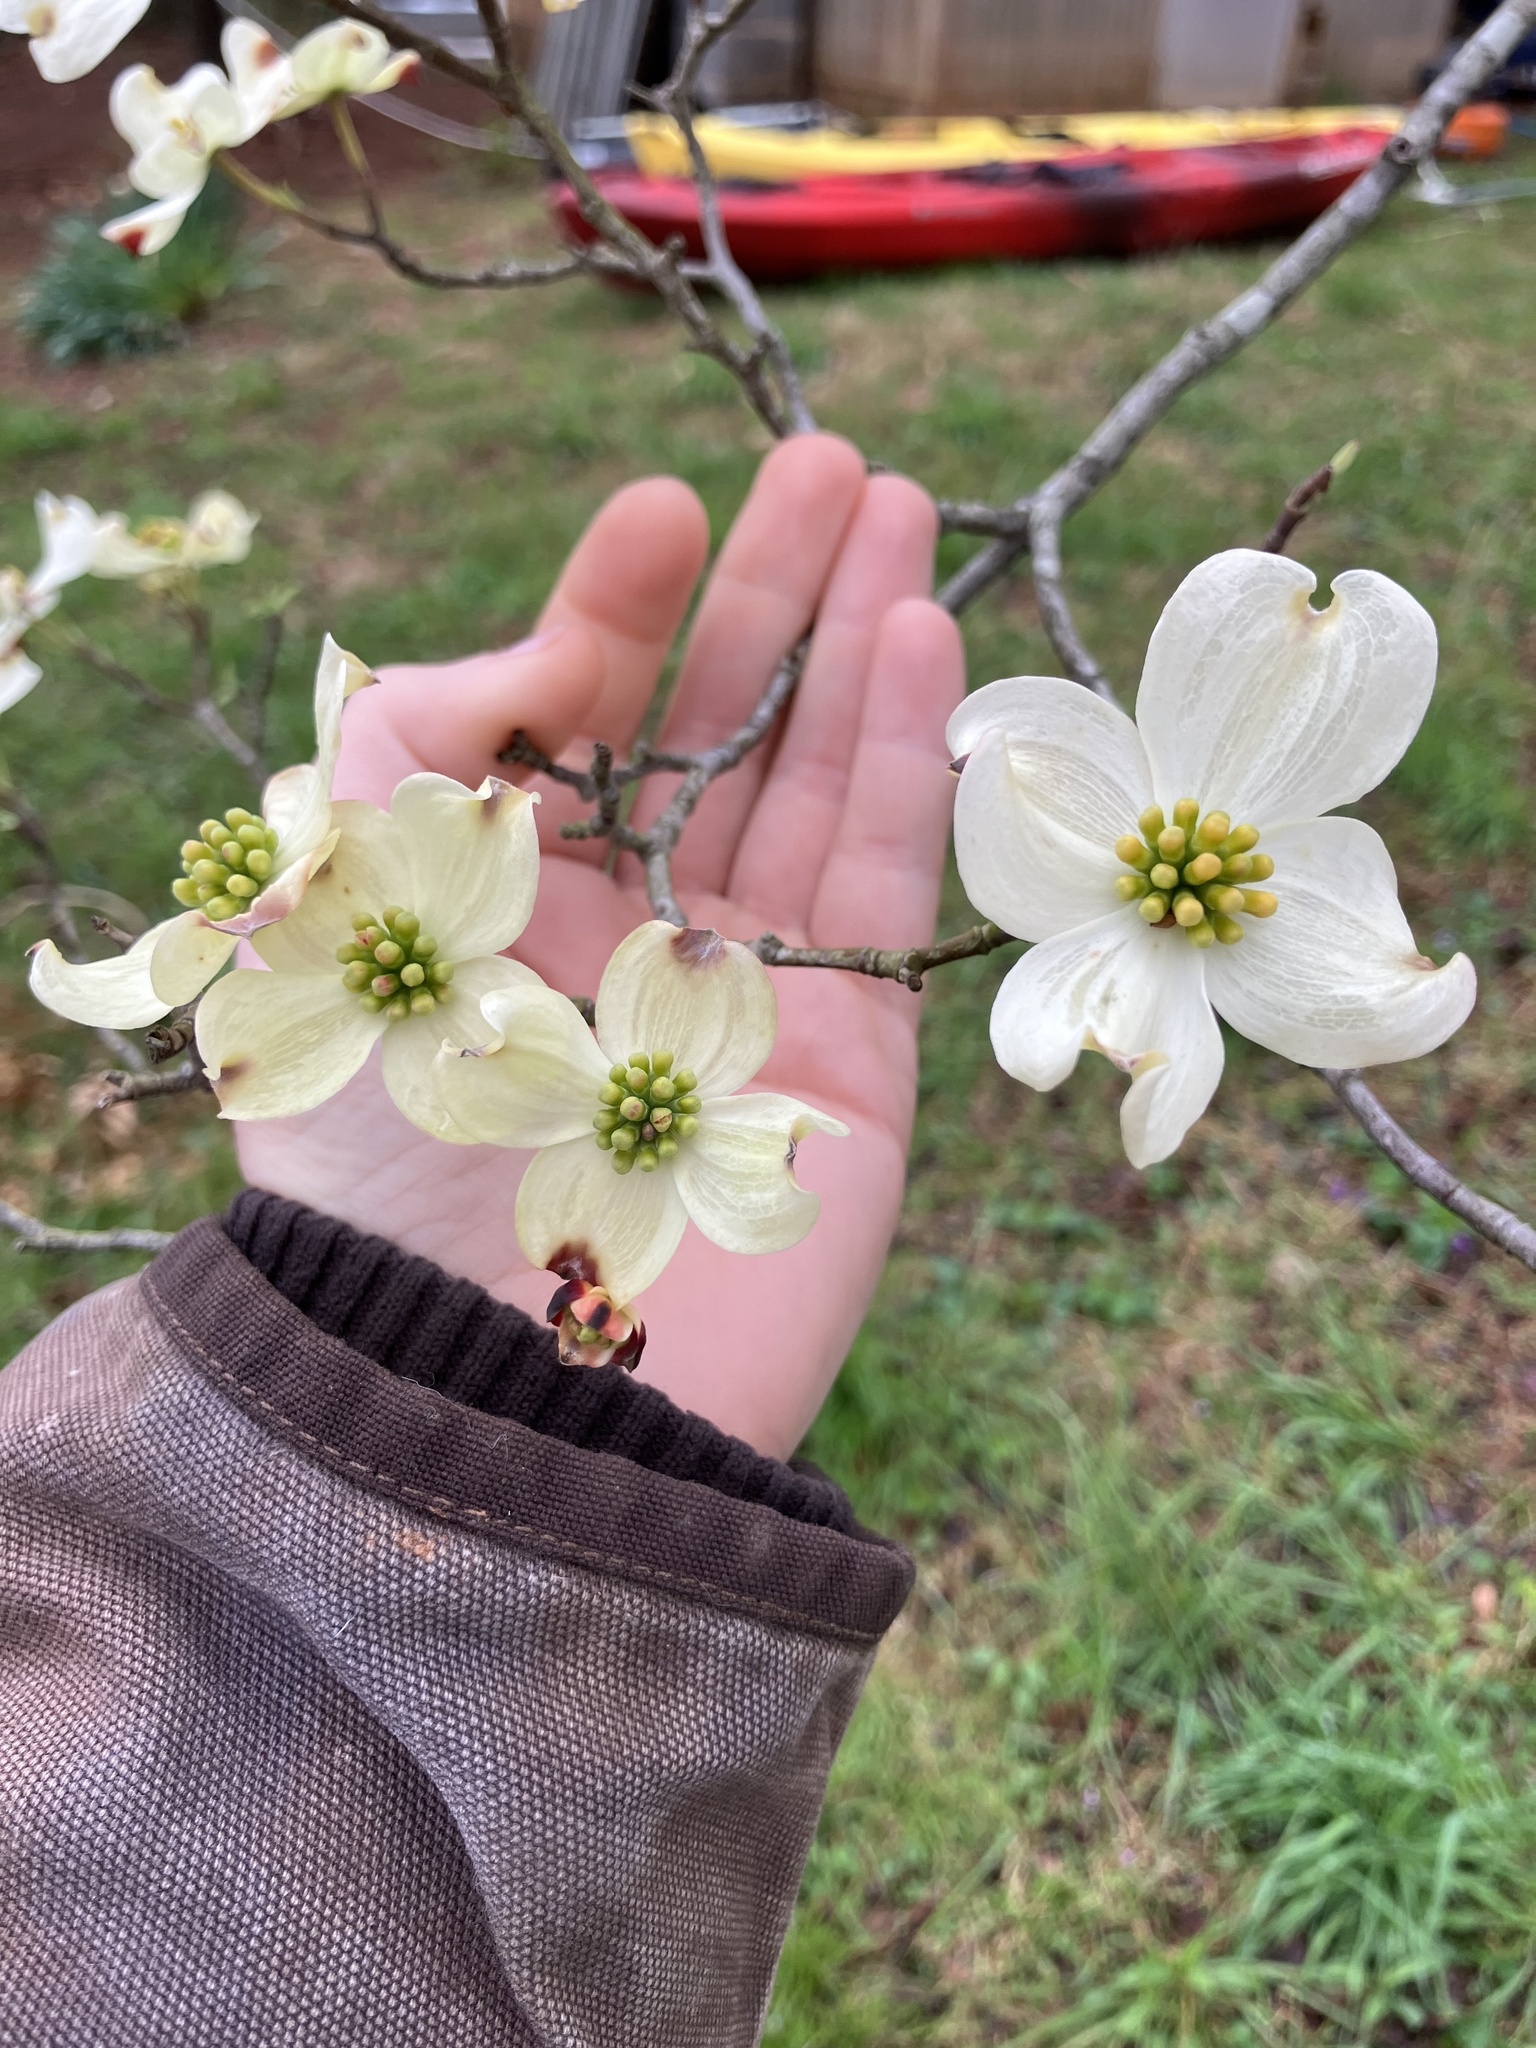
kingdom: Plantae
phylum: Tracheophyta
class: Magnoliopsida
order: Cornales
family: Cornaceae
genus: Cornus
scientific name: Cornus florida
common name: Flowering dogwood
